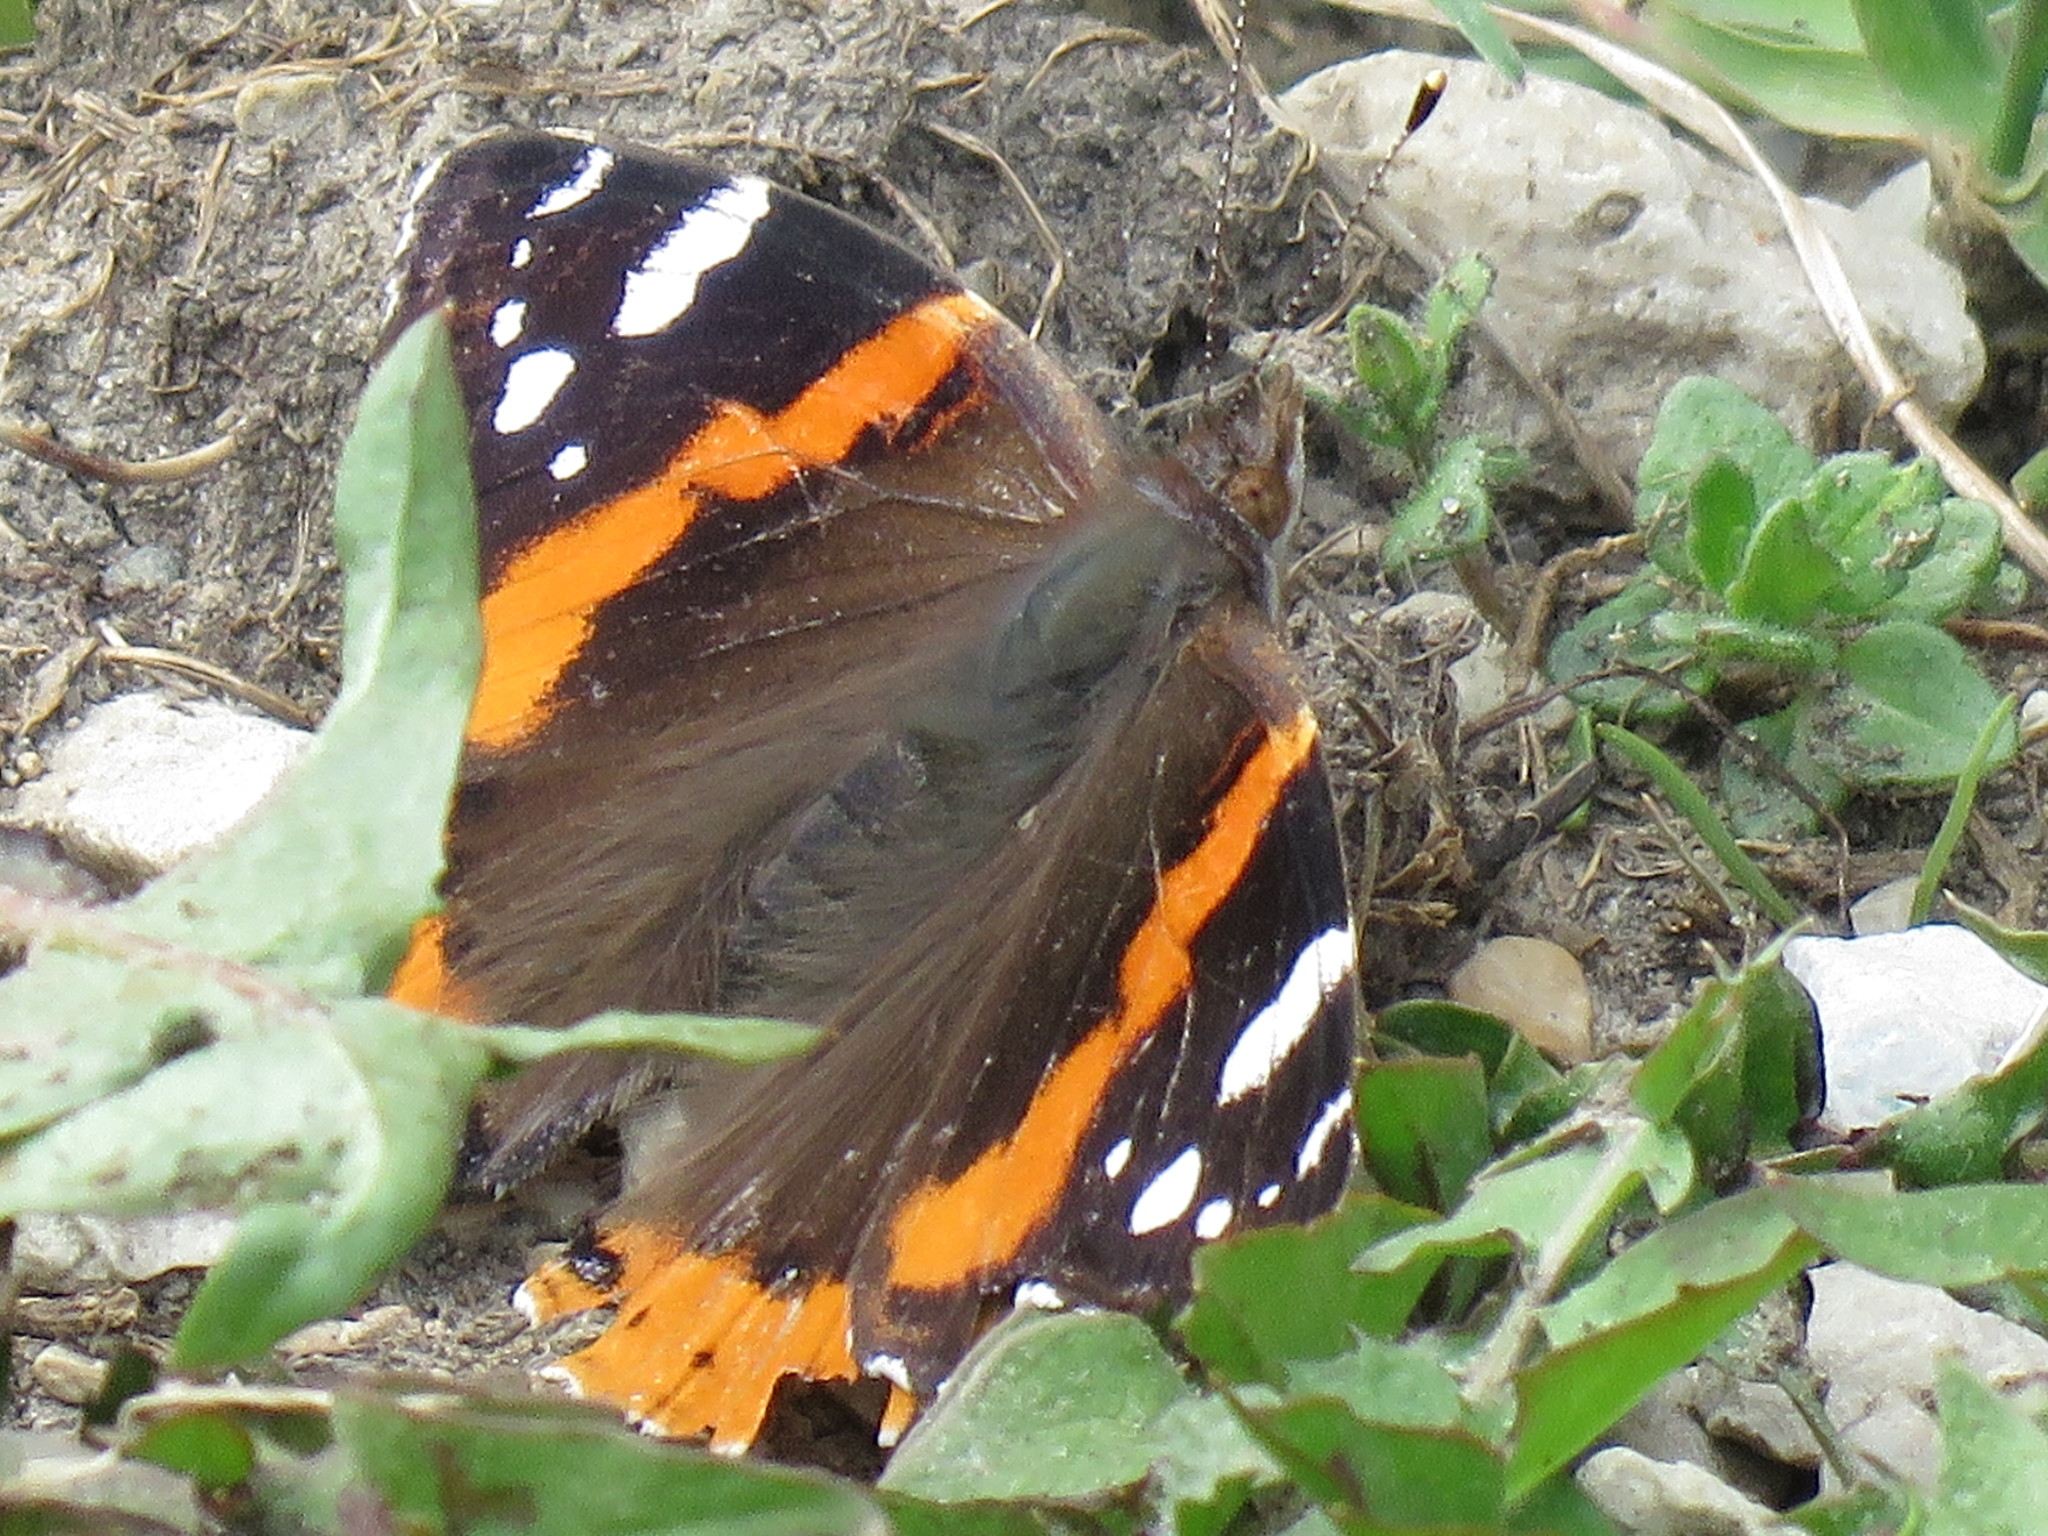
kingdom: Animalia
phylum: Arthropoda
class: Insecta
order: Lepidoptera
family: Nymphalidae
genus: Vanessa
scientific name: Vanessa atalanta
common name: Red admiral
